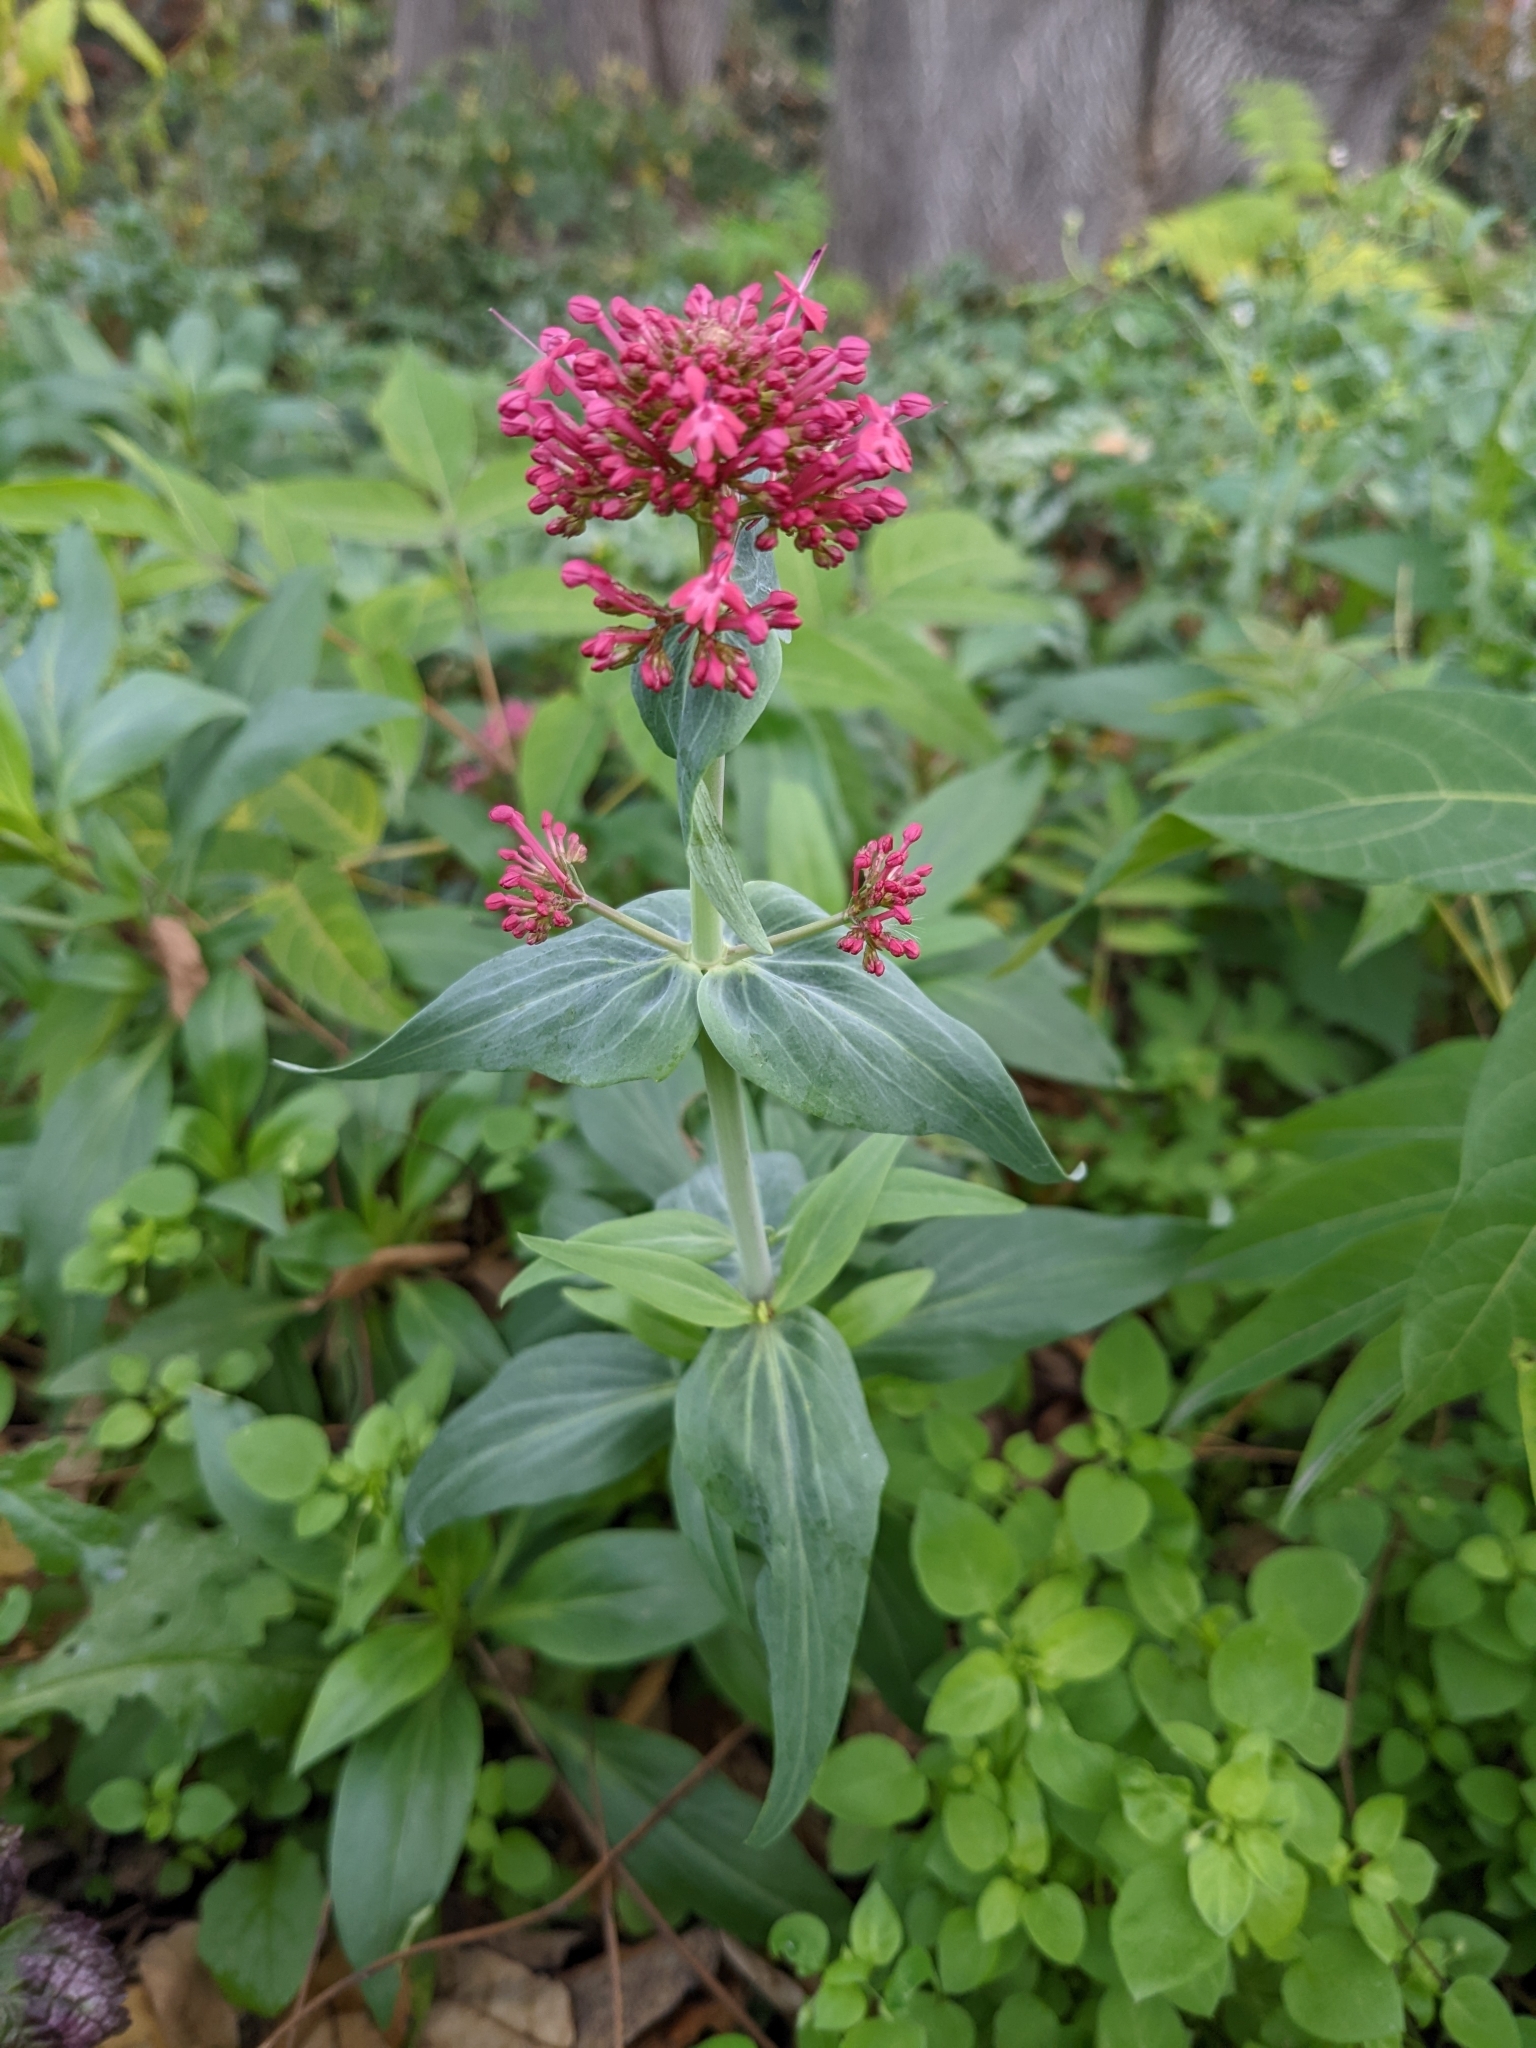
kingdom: Plantae
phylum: Tracheophyta
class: Magnoliopsida
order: Dipsacales
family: Caprifoliaceae
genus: Centranthus
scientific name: Centranthus ruber
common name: Red valerian
